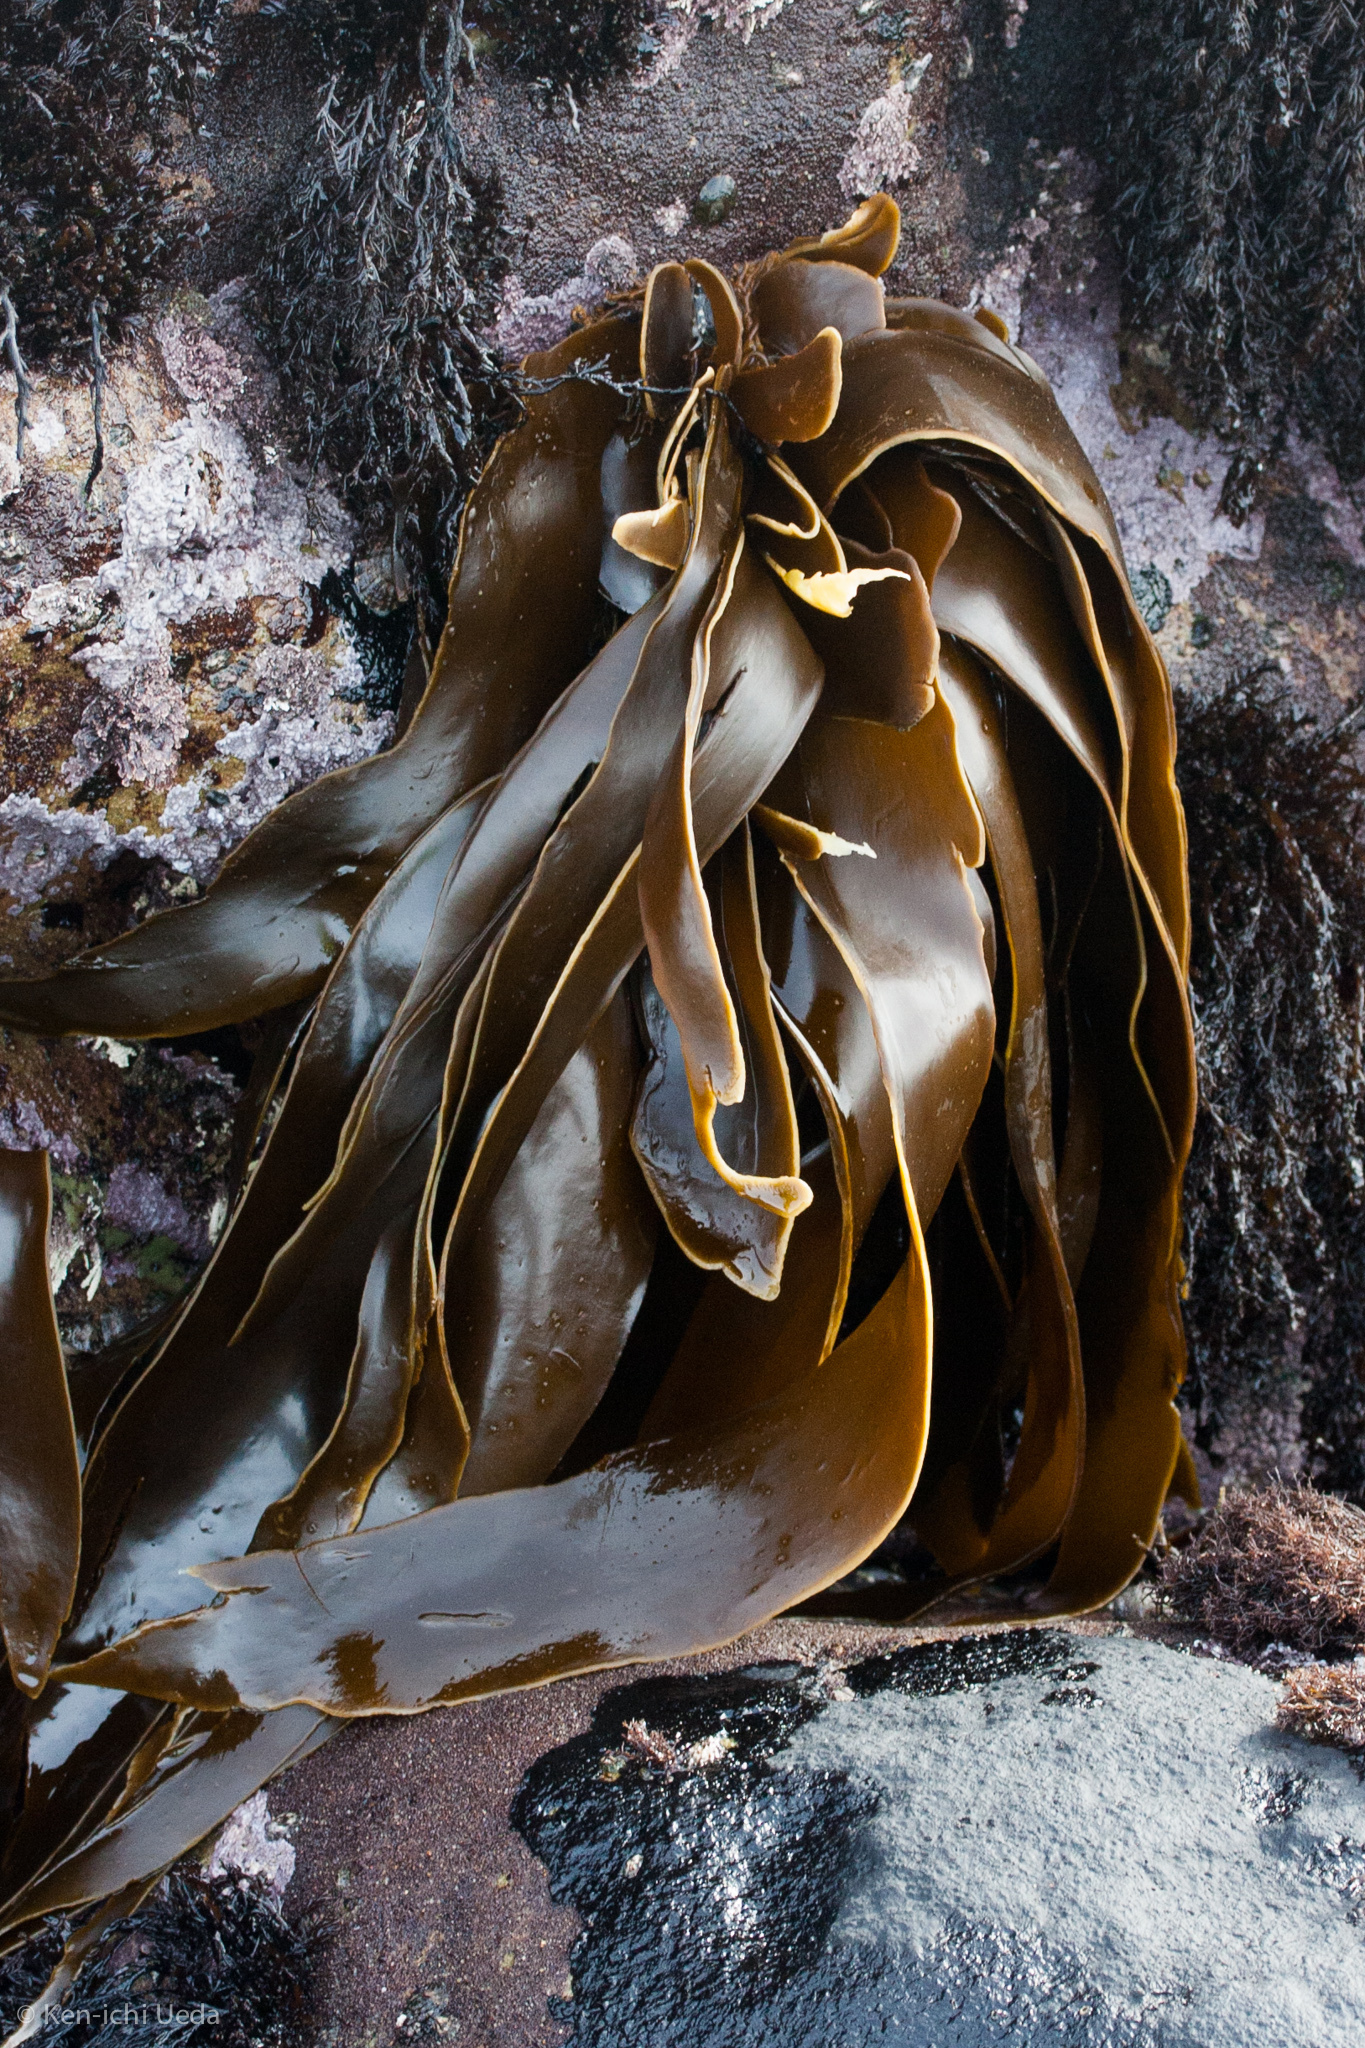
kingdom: Chromista
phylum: Ochrophyta
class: Phaeophyceae
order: Laminariales
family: Laminariaceae
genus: Hedophyllum
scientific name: Hedophyllum sessile
